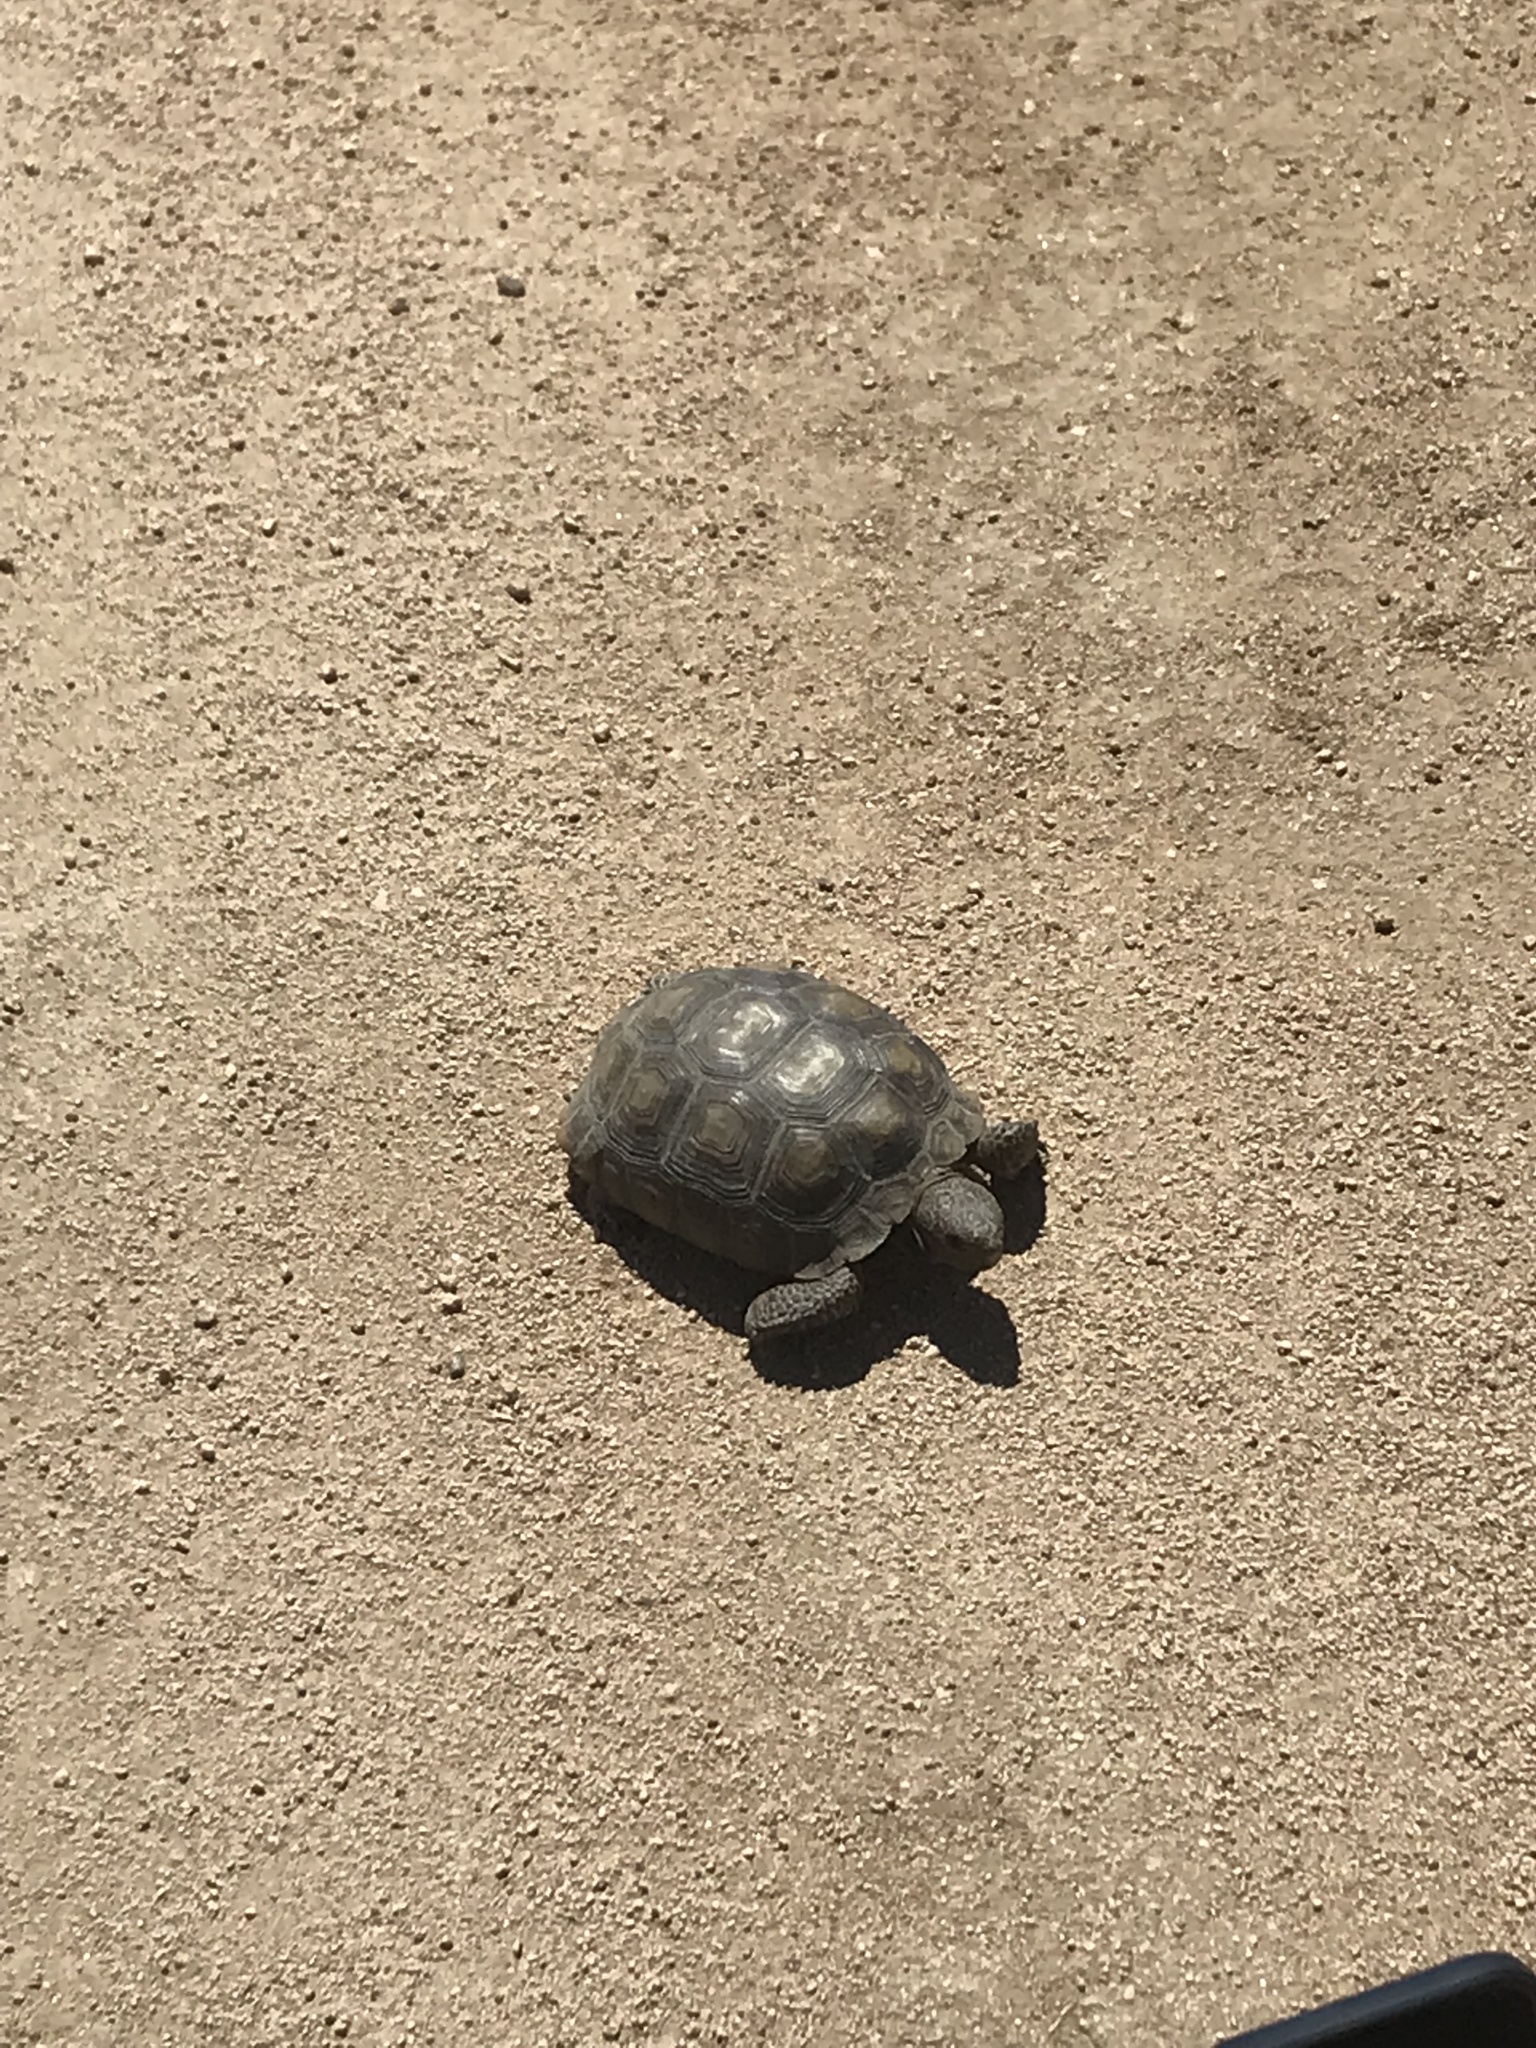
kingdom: Animalia
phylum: Chordata
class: Testudines
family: Testudinidae
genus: Gopherus
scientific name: Gopherus agassizii
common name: Mojave desert tortoise
